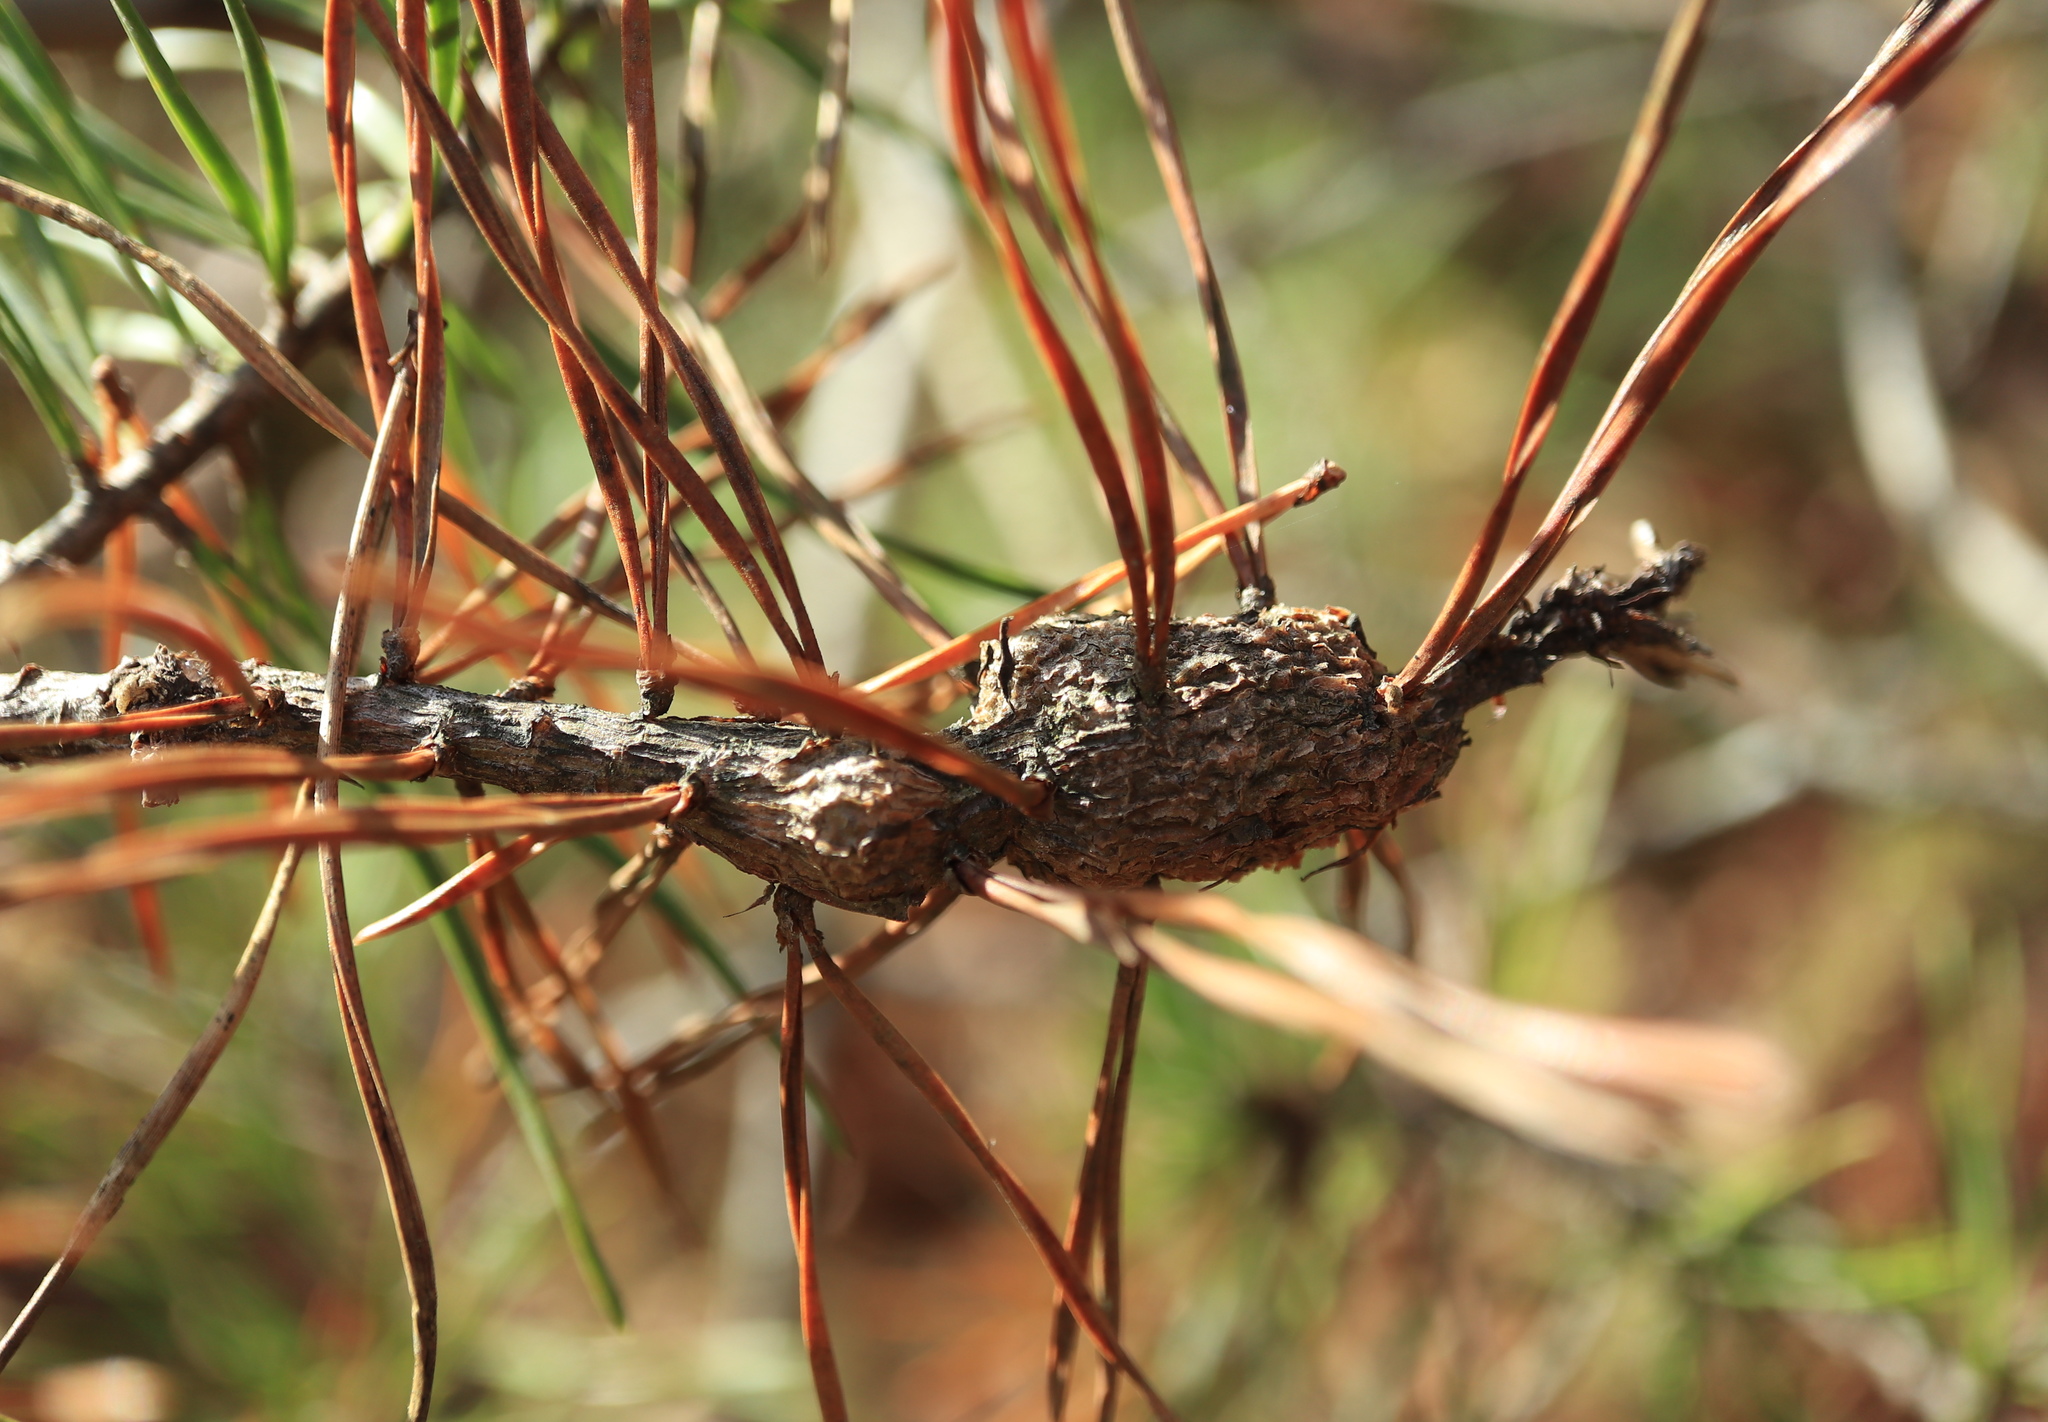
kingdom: Animalia
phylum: Arthropoda
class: Insecta
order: Coleoptera
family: Brentidae
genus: Podapion
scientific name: Podapion gallicola
